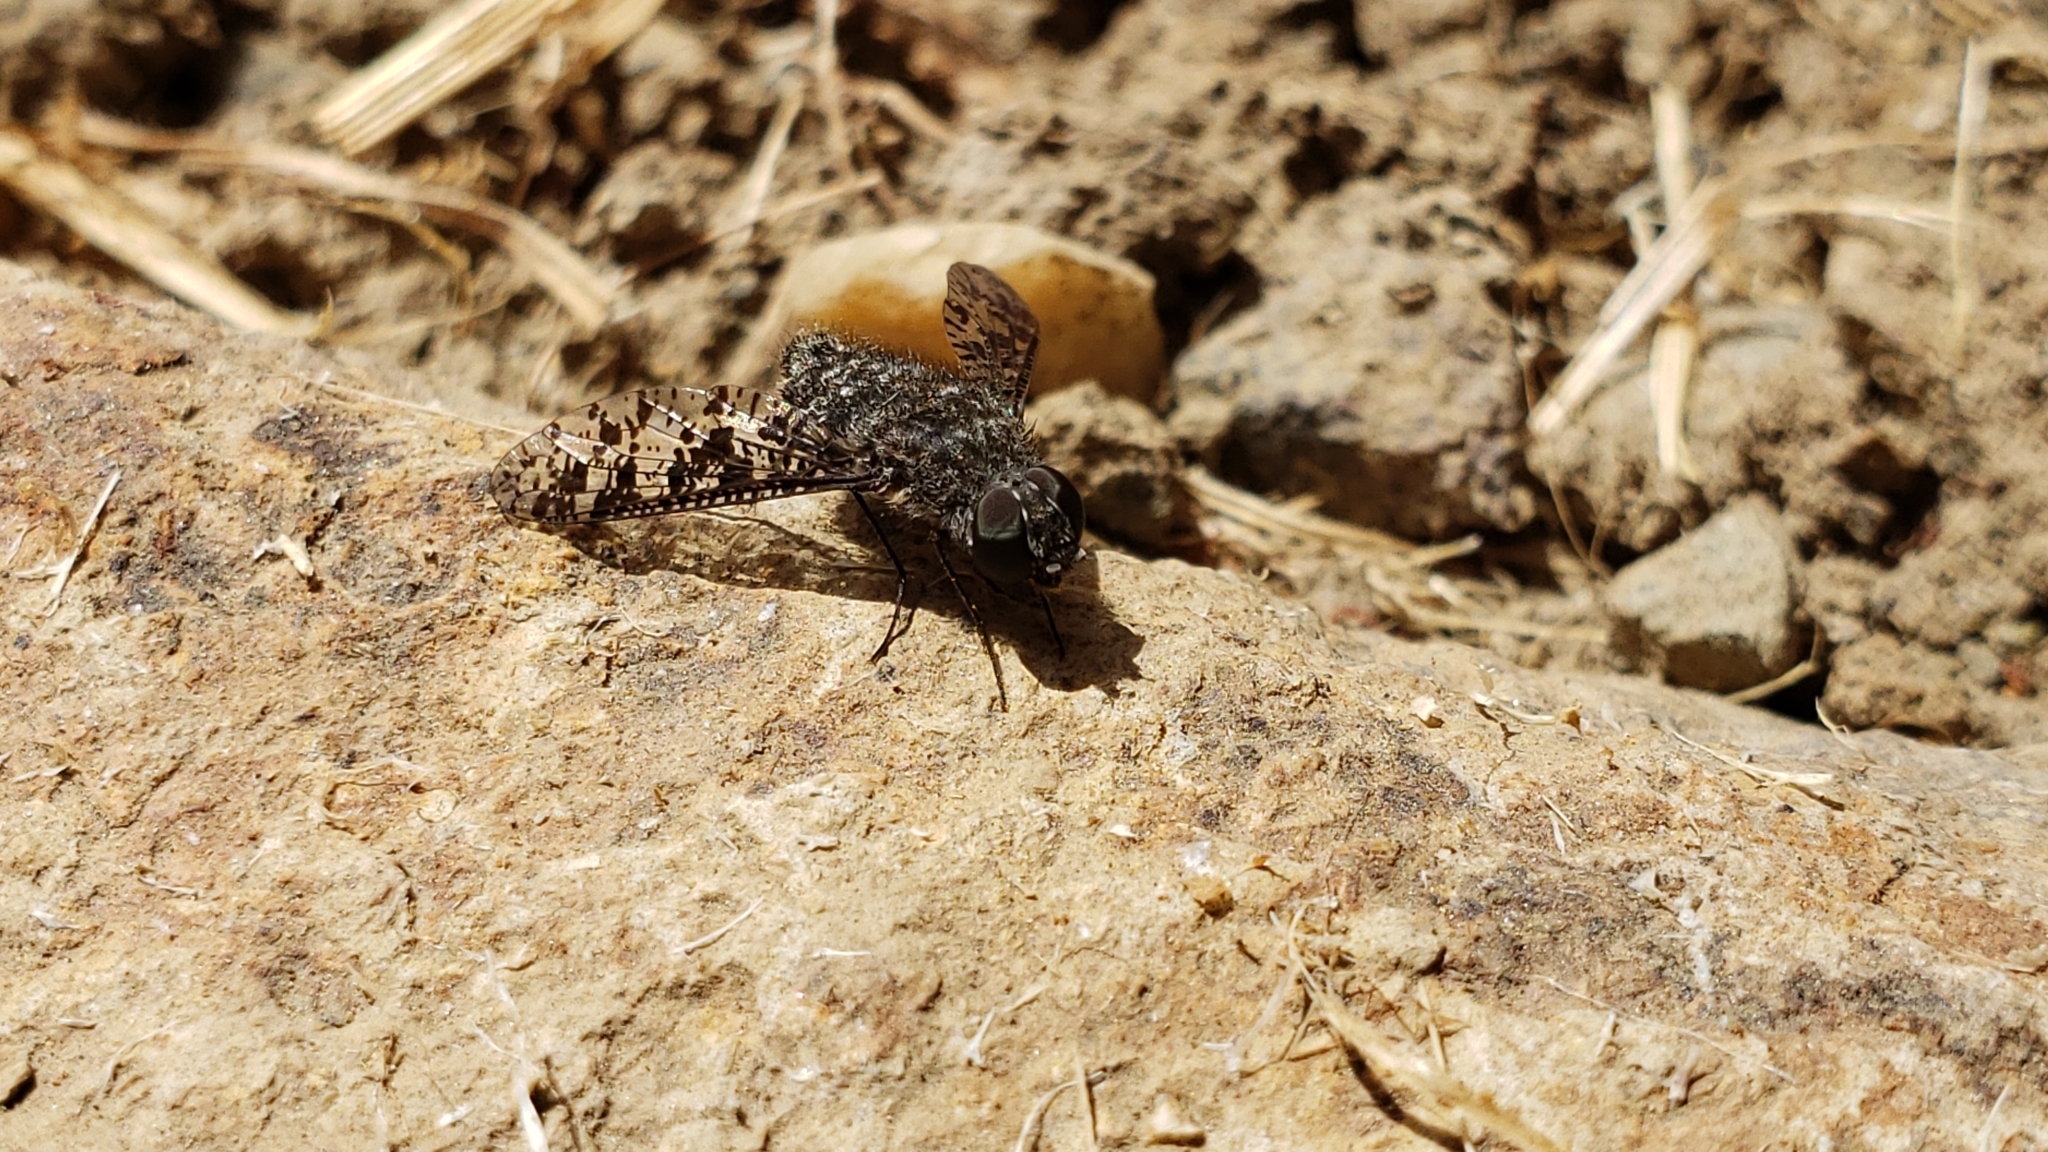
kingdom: Animalia
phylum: Arthropoda
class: Insecta
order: Diptera
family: Bombyliidae
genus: Anthrax
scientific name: Anthrax irroratus
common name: Spotted bee fly
